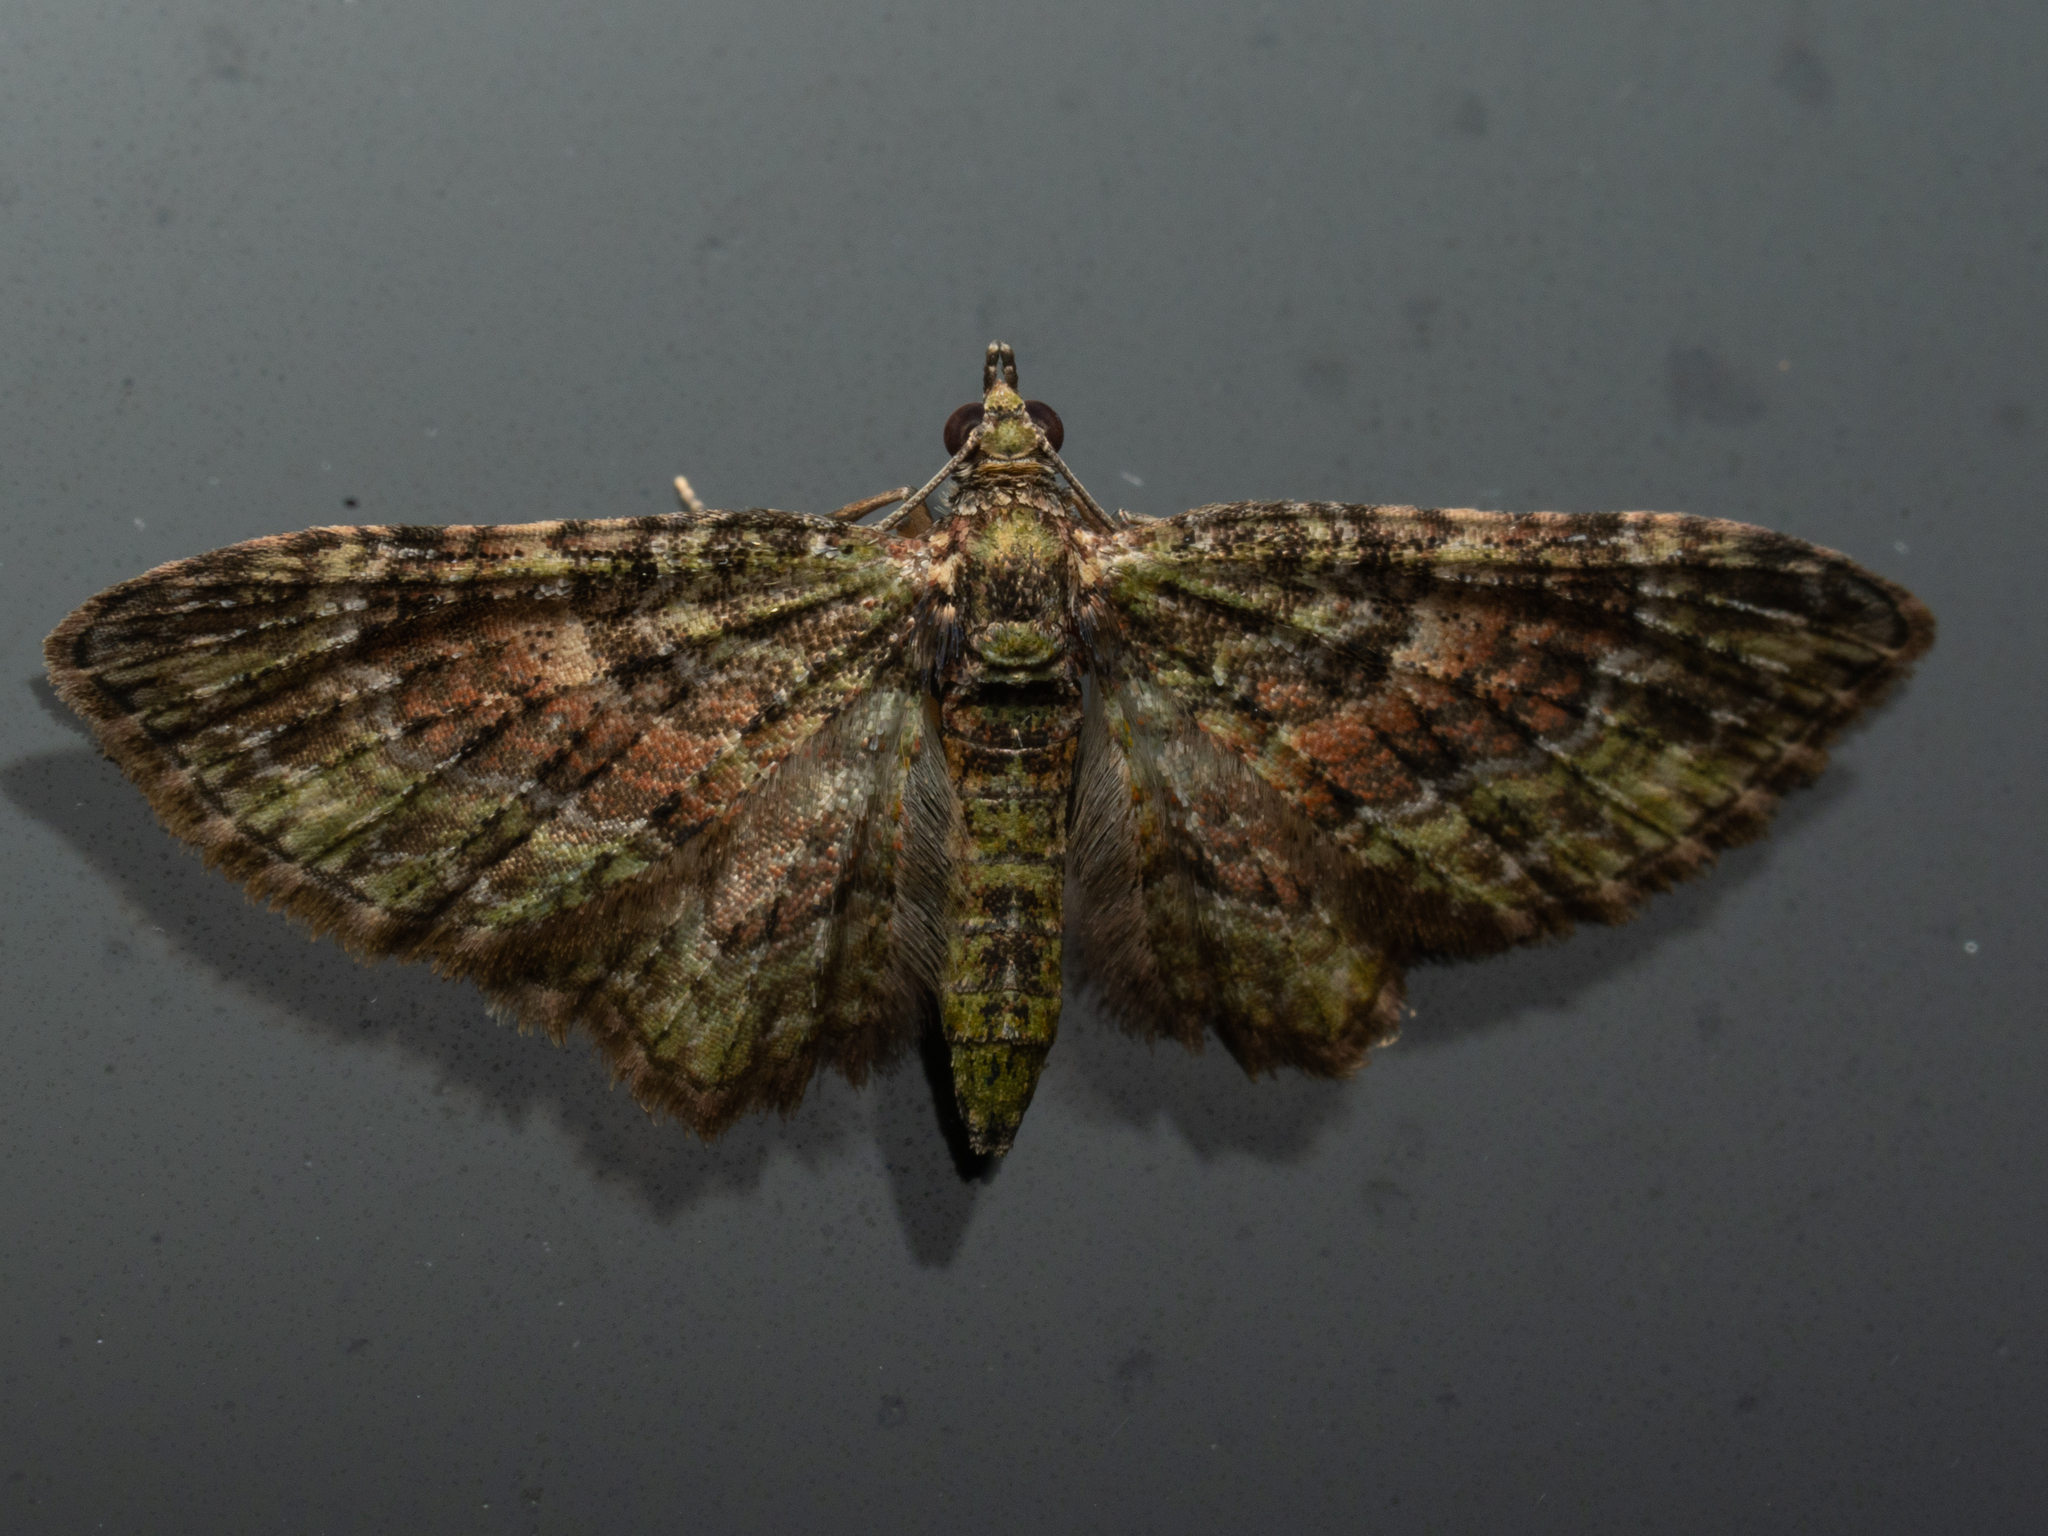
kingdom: Animalia
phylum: Arthropoda
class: Insecta
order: Lepidoptera
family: Geometridae
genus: Chloroclystis
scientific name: Chloroclystis catastreptes
